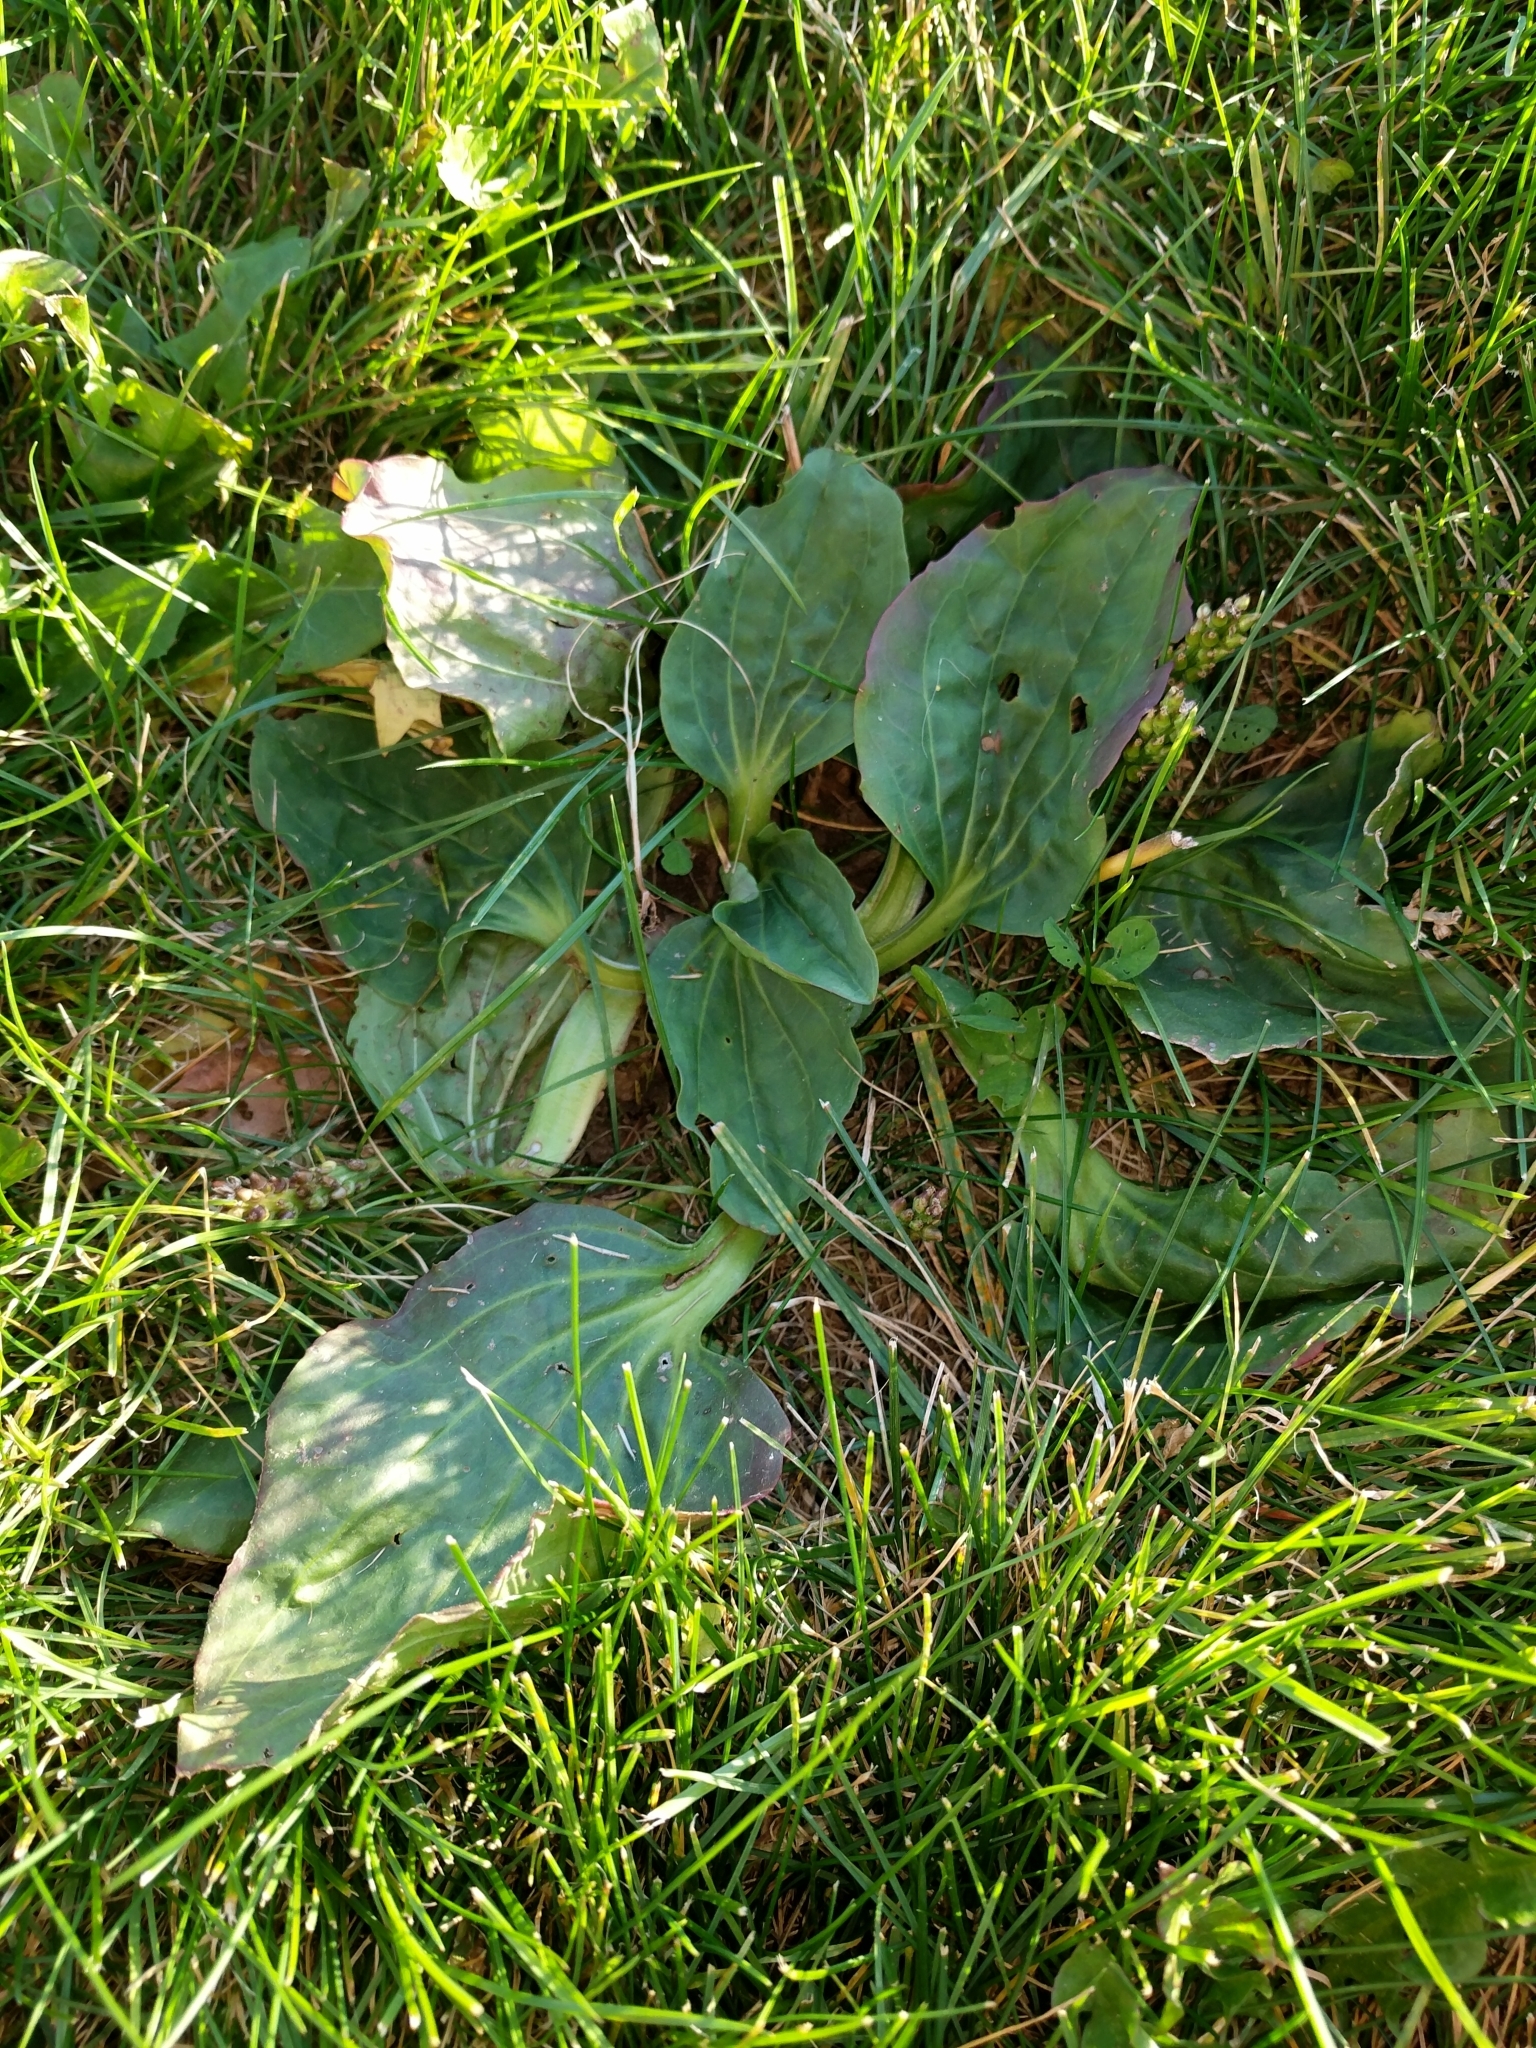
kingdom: Plantae
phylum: Tracheophyta
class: Magnoliopsida
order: Lamiales
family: Plantaginaceae
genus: Plantago
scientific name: Plantago major
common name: Common plantain
